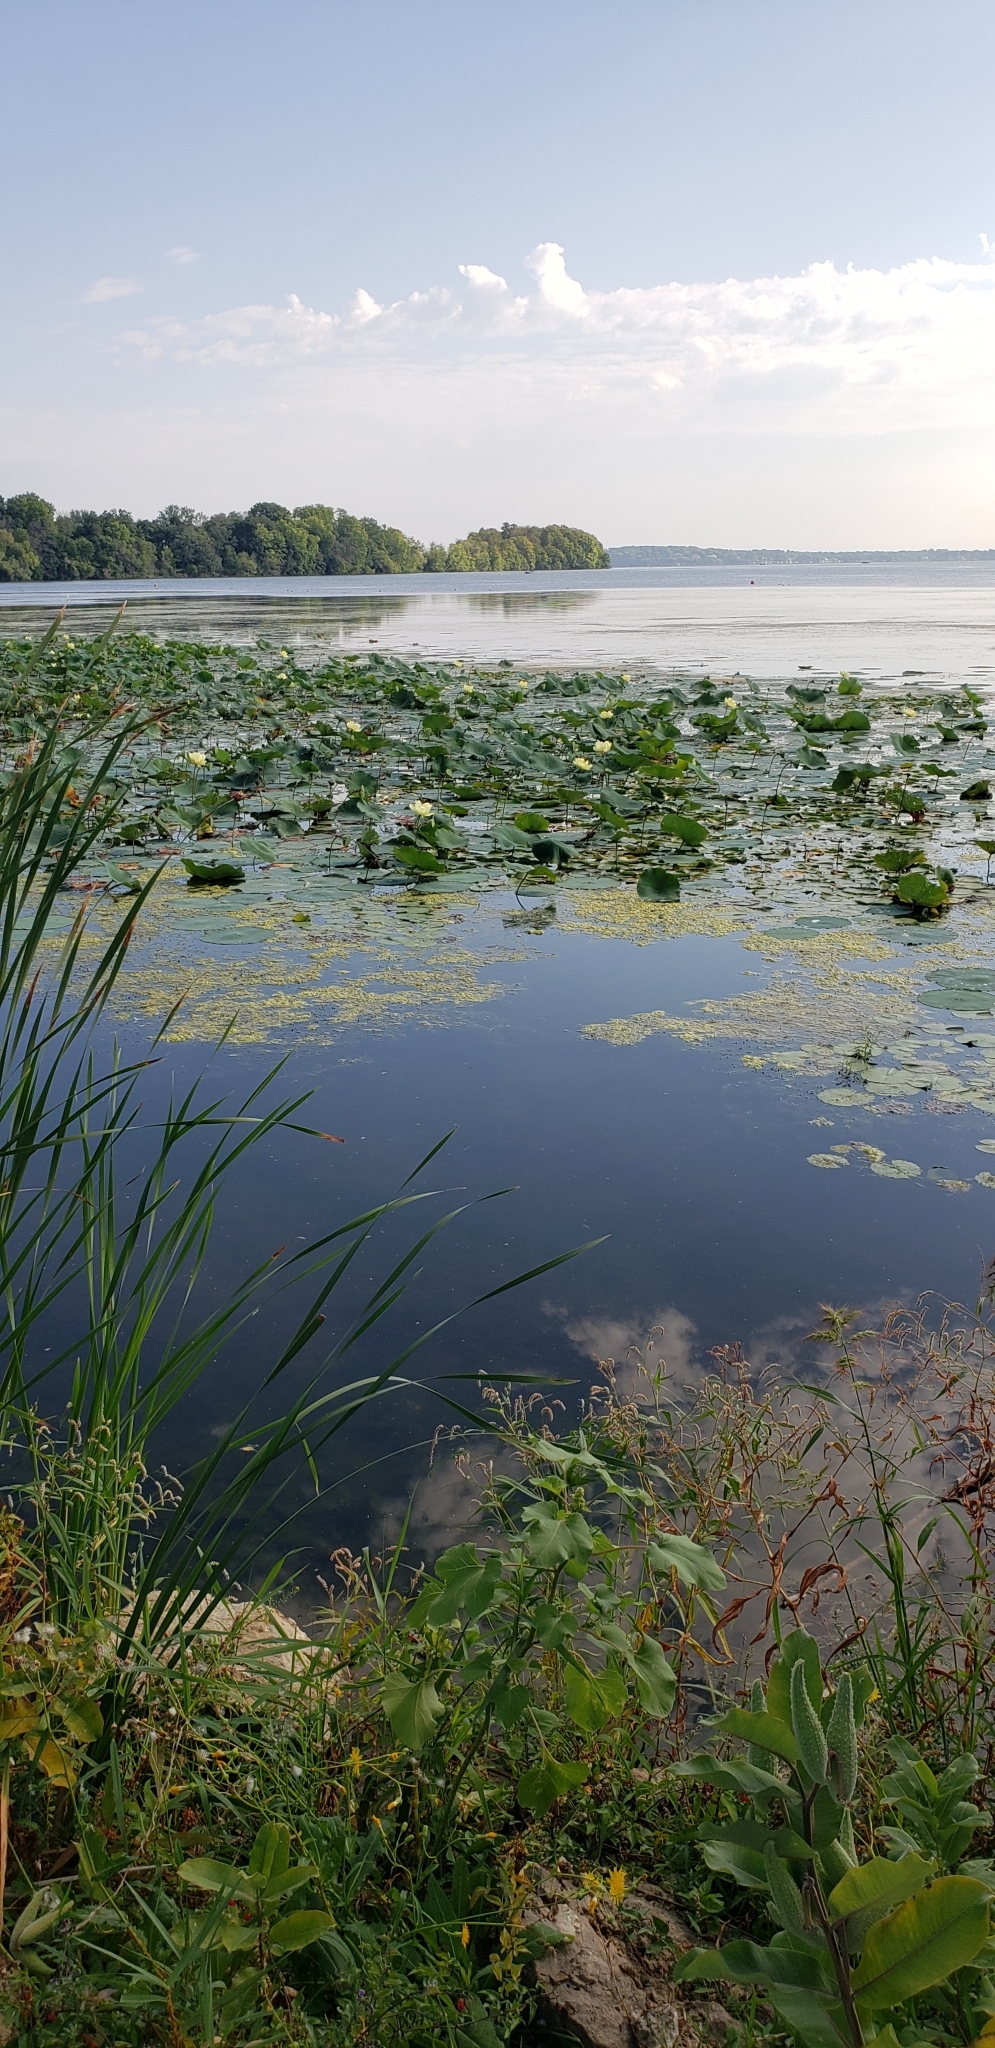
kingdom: Plantae
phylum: Tracheophyta
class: Magnoliopsida
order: Proteales
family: Nelumbonaceae
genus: Nelumbo
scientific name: Nelumbo lutea
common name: American lotus
